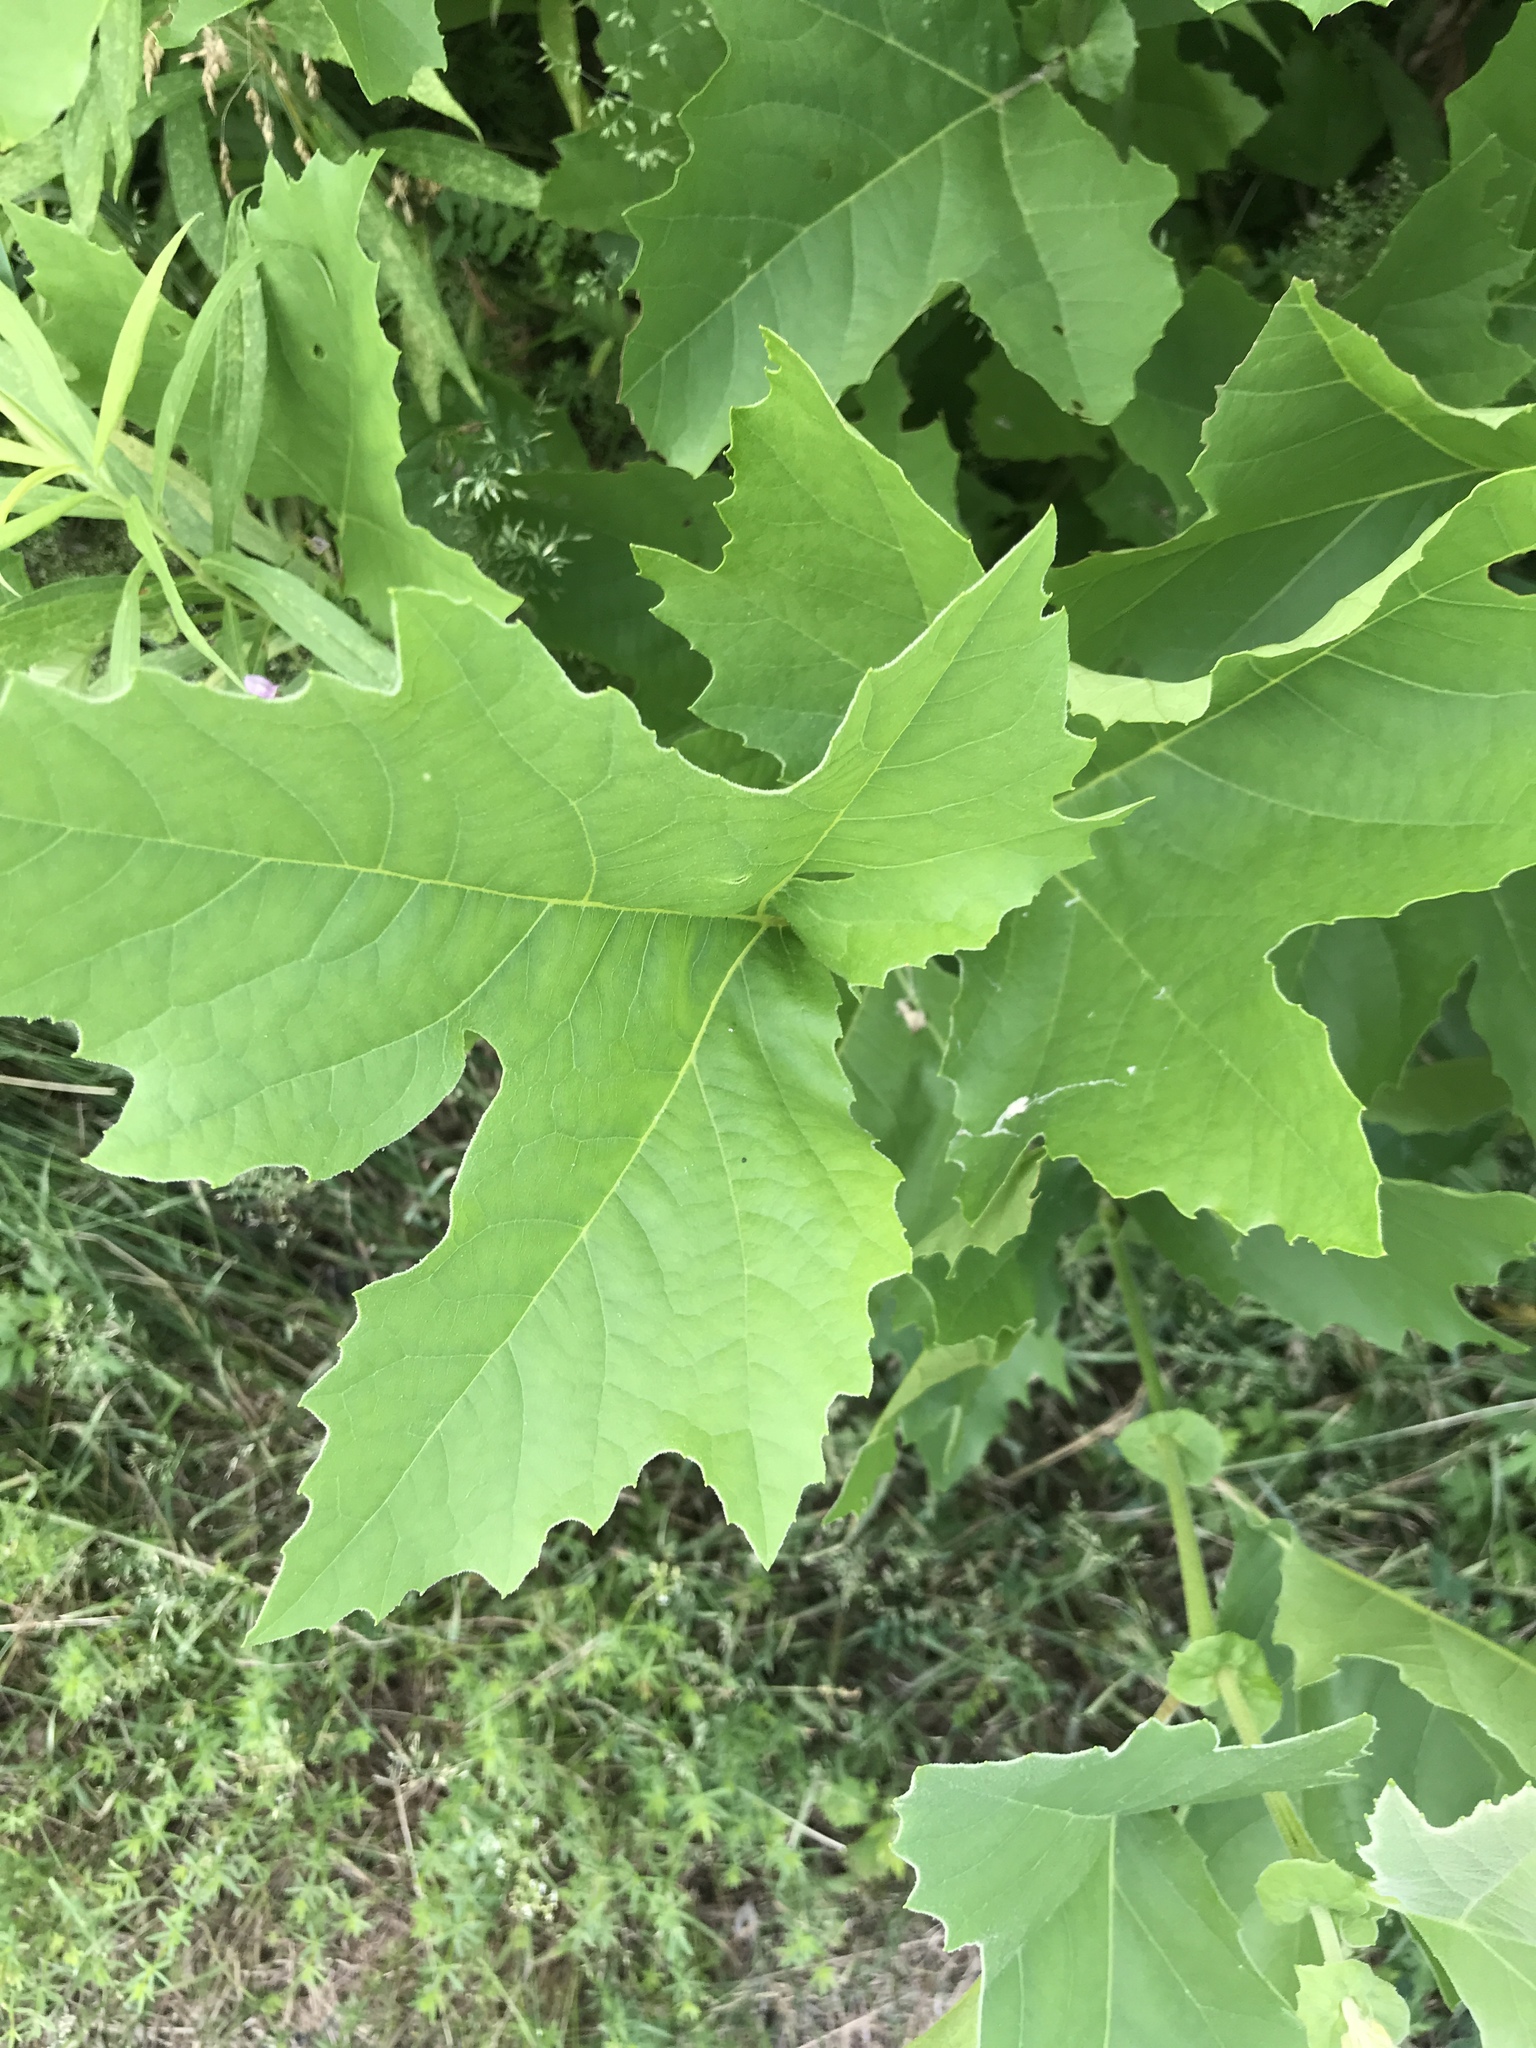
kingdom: Plantae
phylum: Tracheophyta
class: Magnoliopsida
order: Proteales
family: Platanaceae
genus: Platanus
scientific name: Platanus occidentalis
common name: American sycamore
